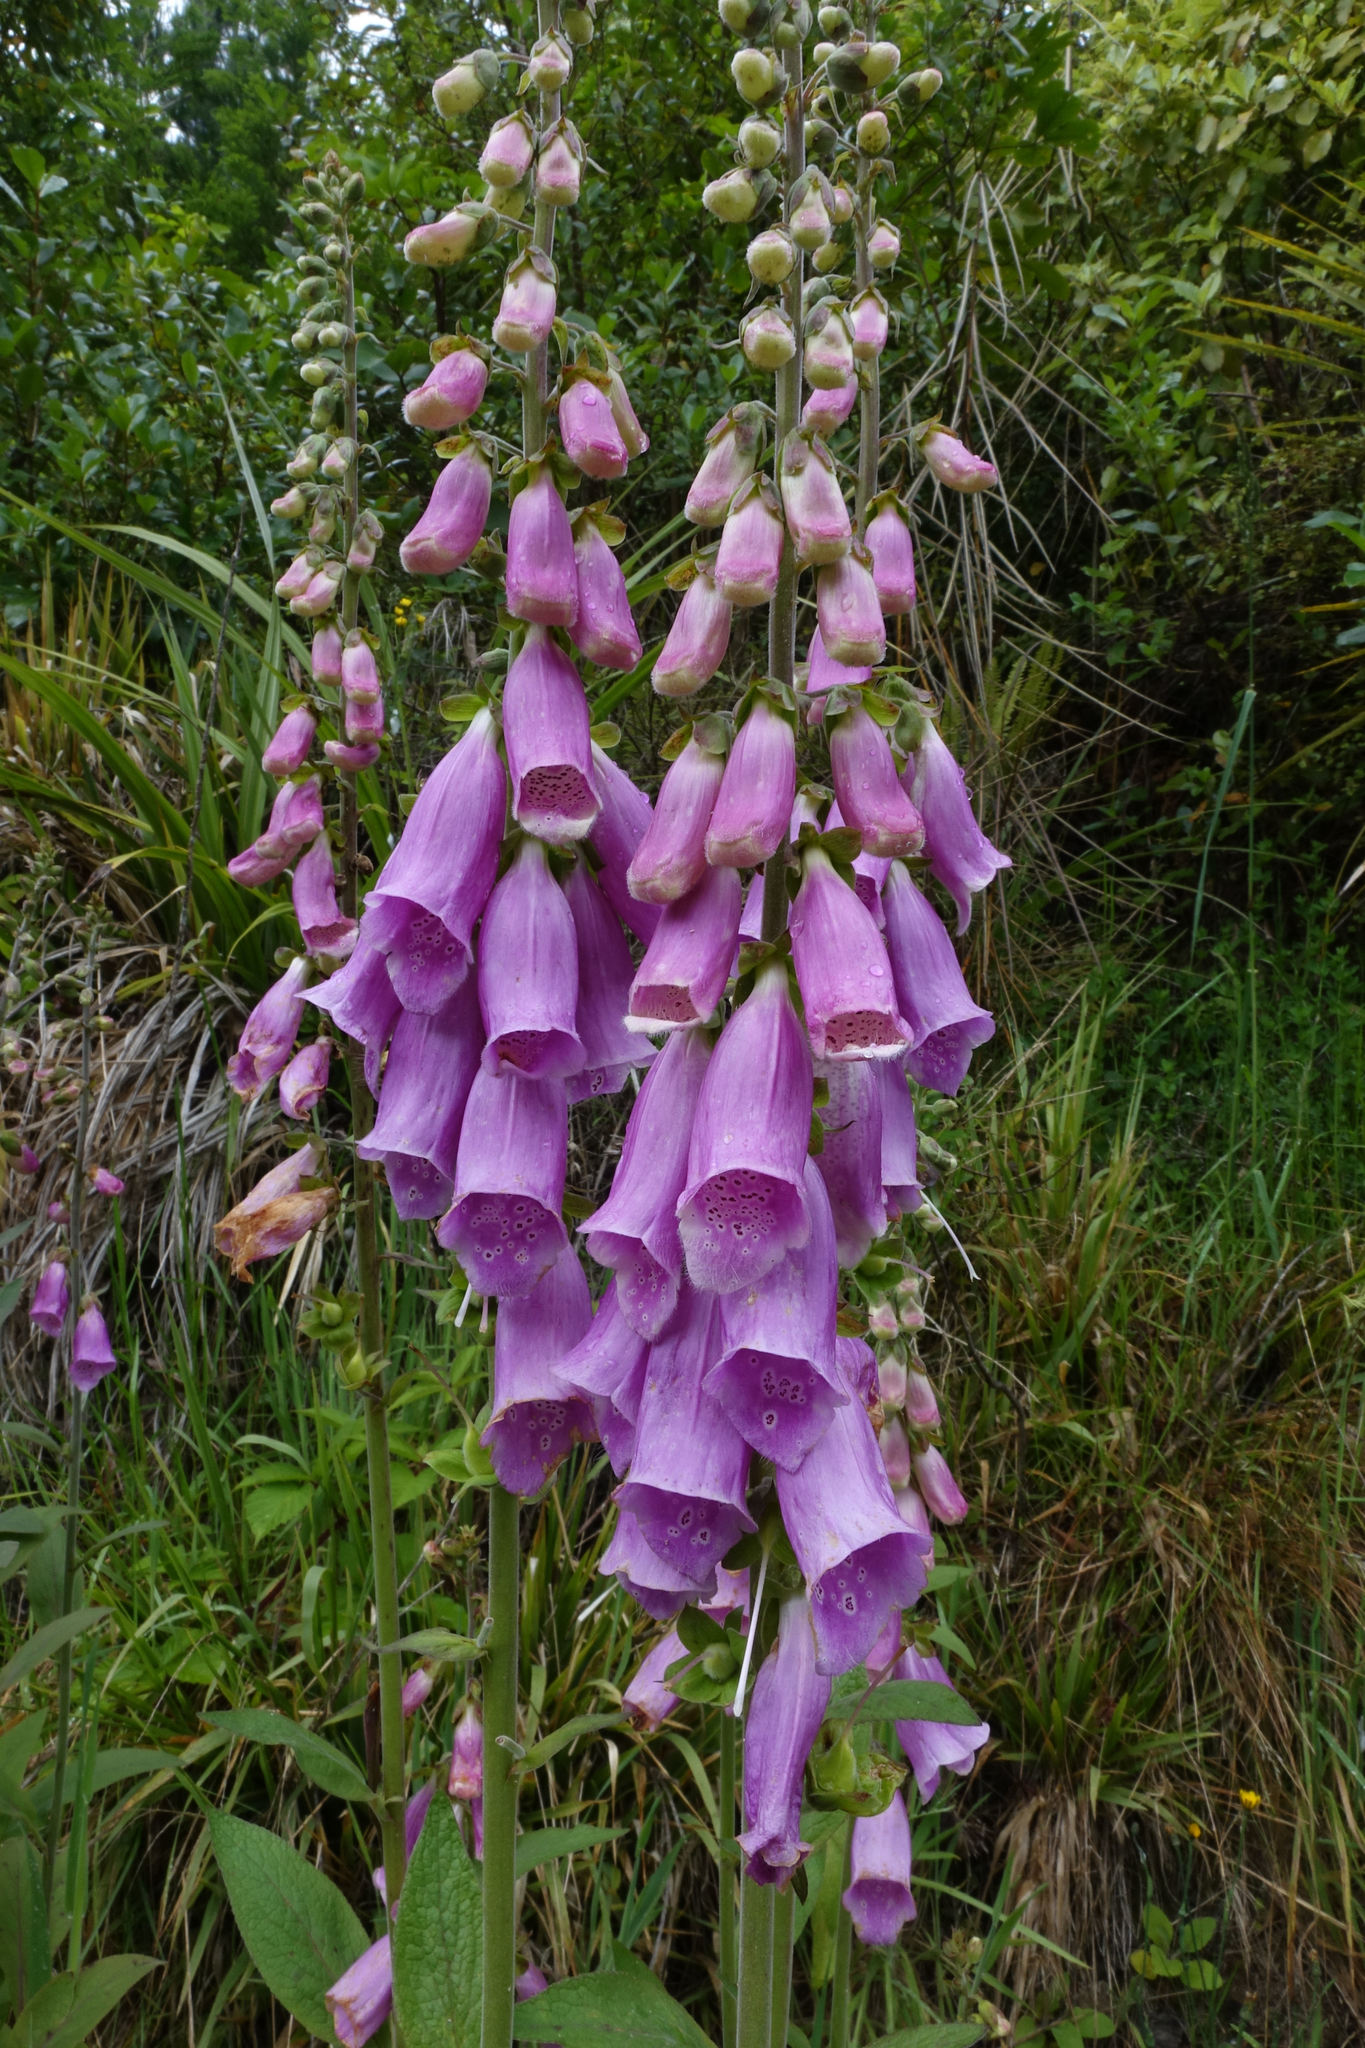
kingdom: Plantae
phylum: Tracheophyta
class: Magnoliopsida
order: Lamiales
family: Plantaginaceae
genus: Digitalis
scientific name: Digitalis purpurea
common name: Foxglove
